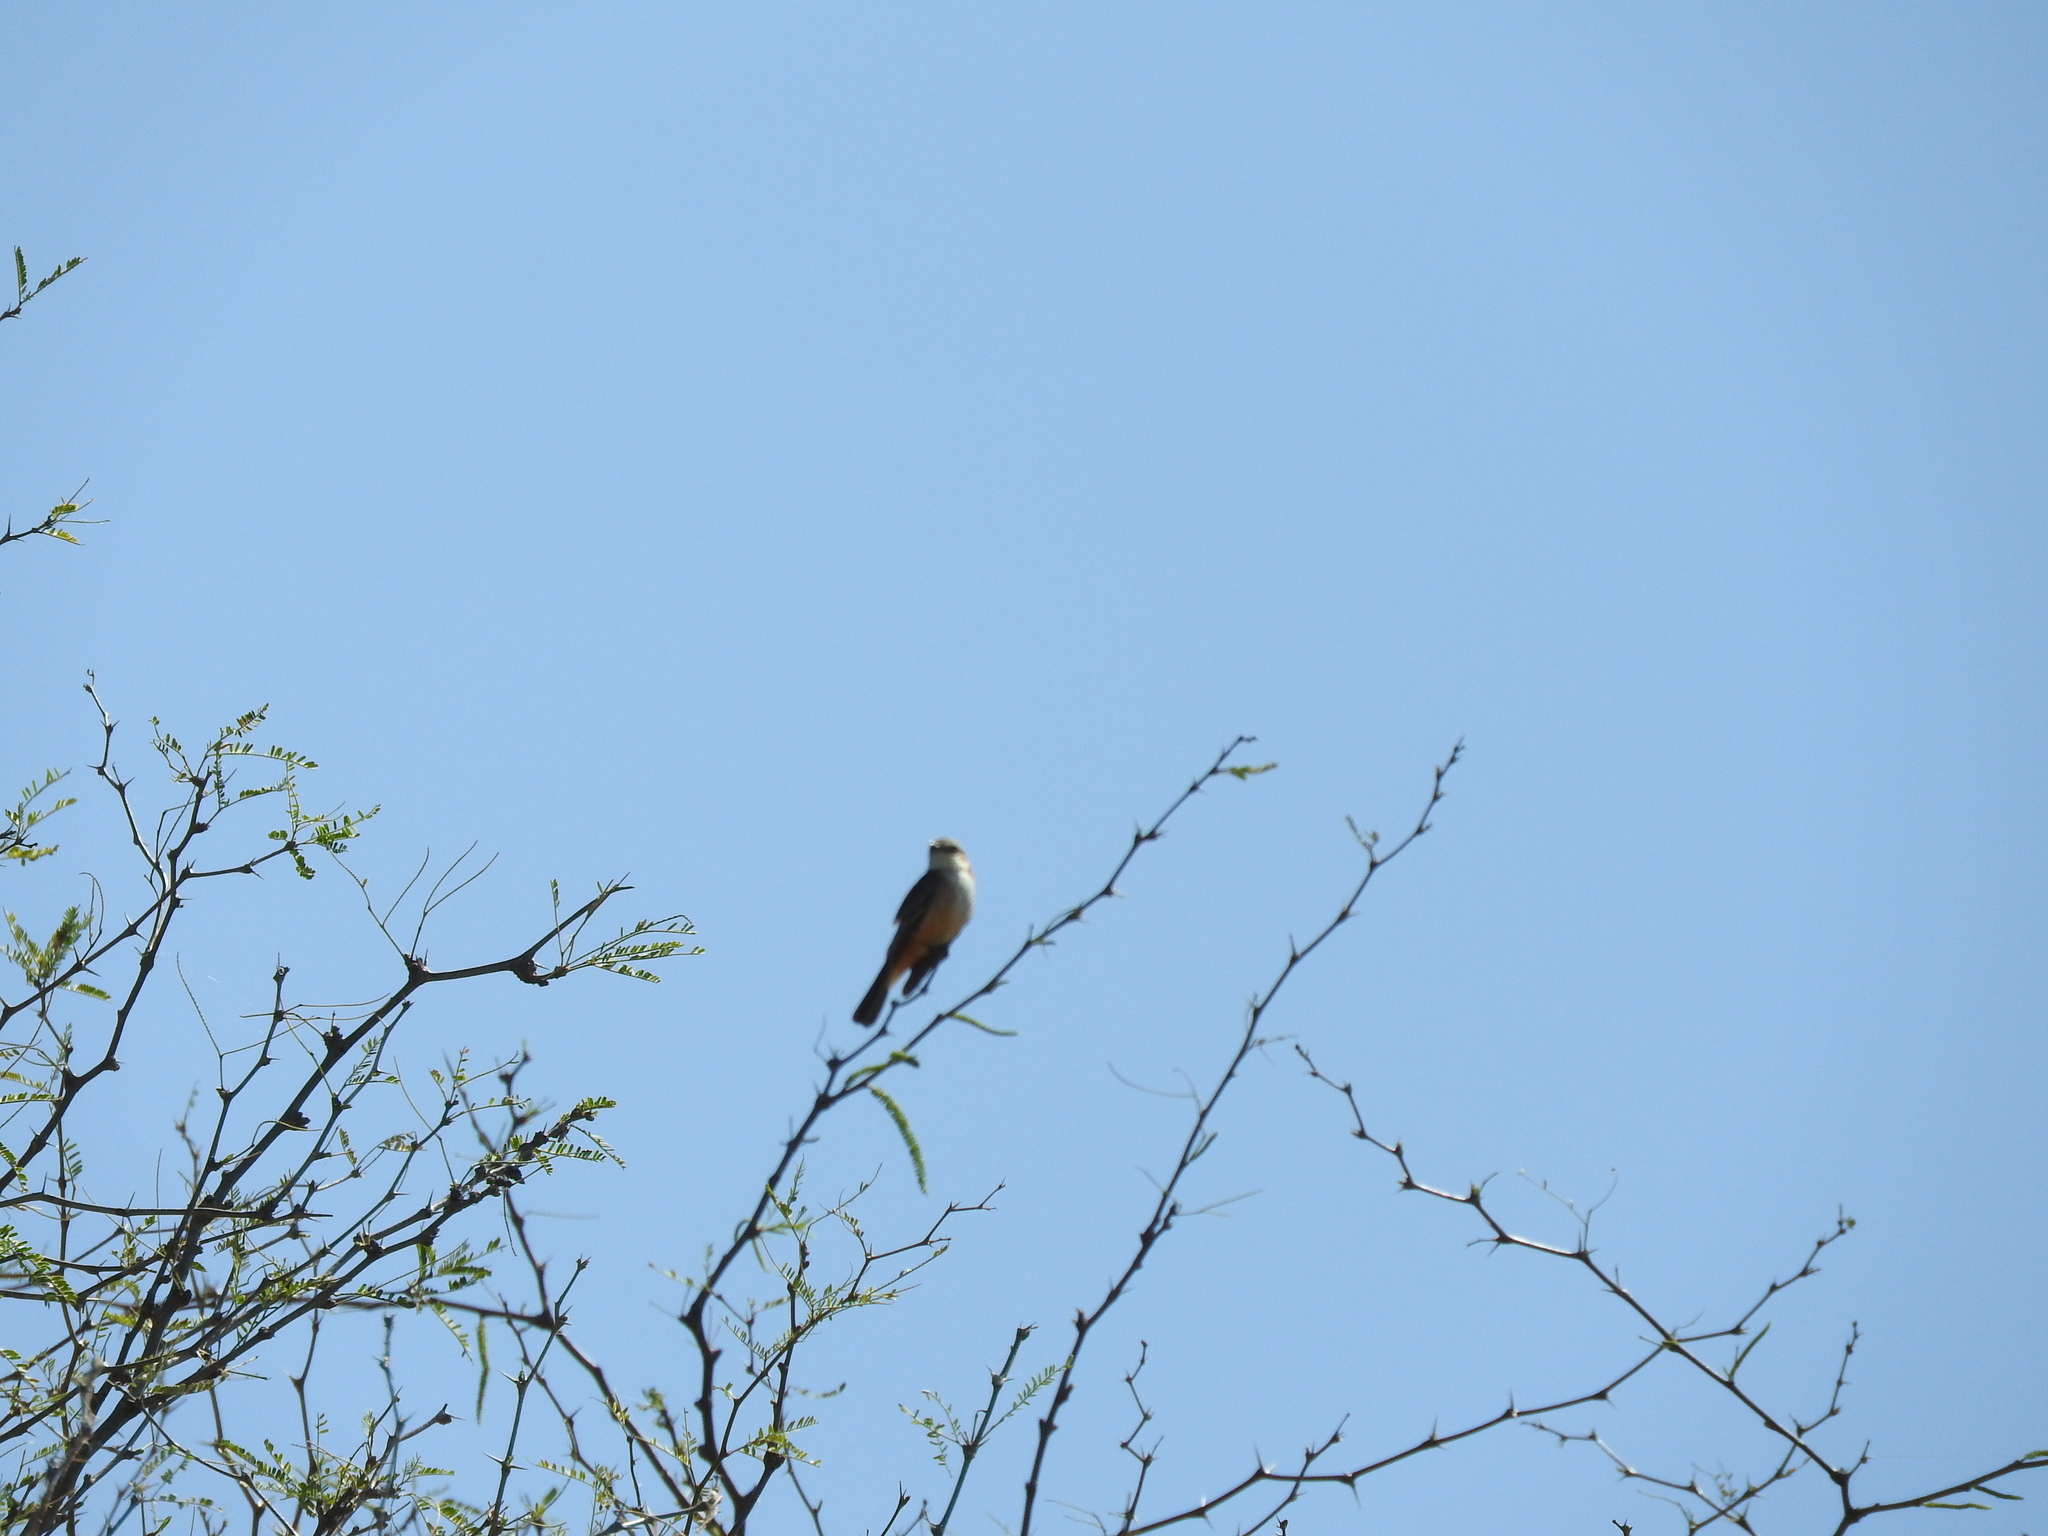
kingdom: Animalia
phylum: Chordata
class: Aves
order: Passeriformes
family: Tyrannidae
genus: Pyrocephalus
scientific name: Pyrocephalus rubinus
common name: Vermilion flycatcher
